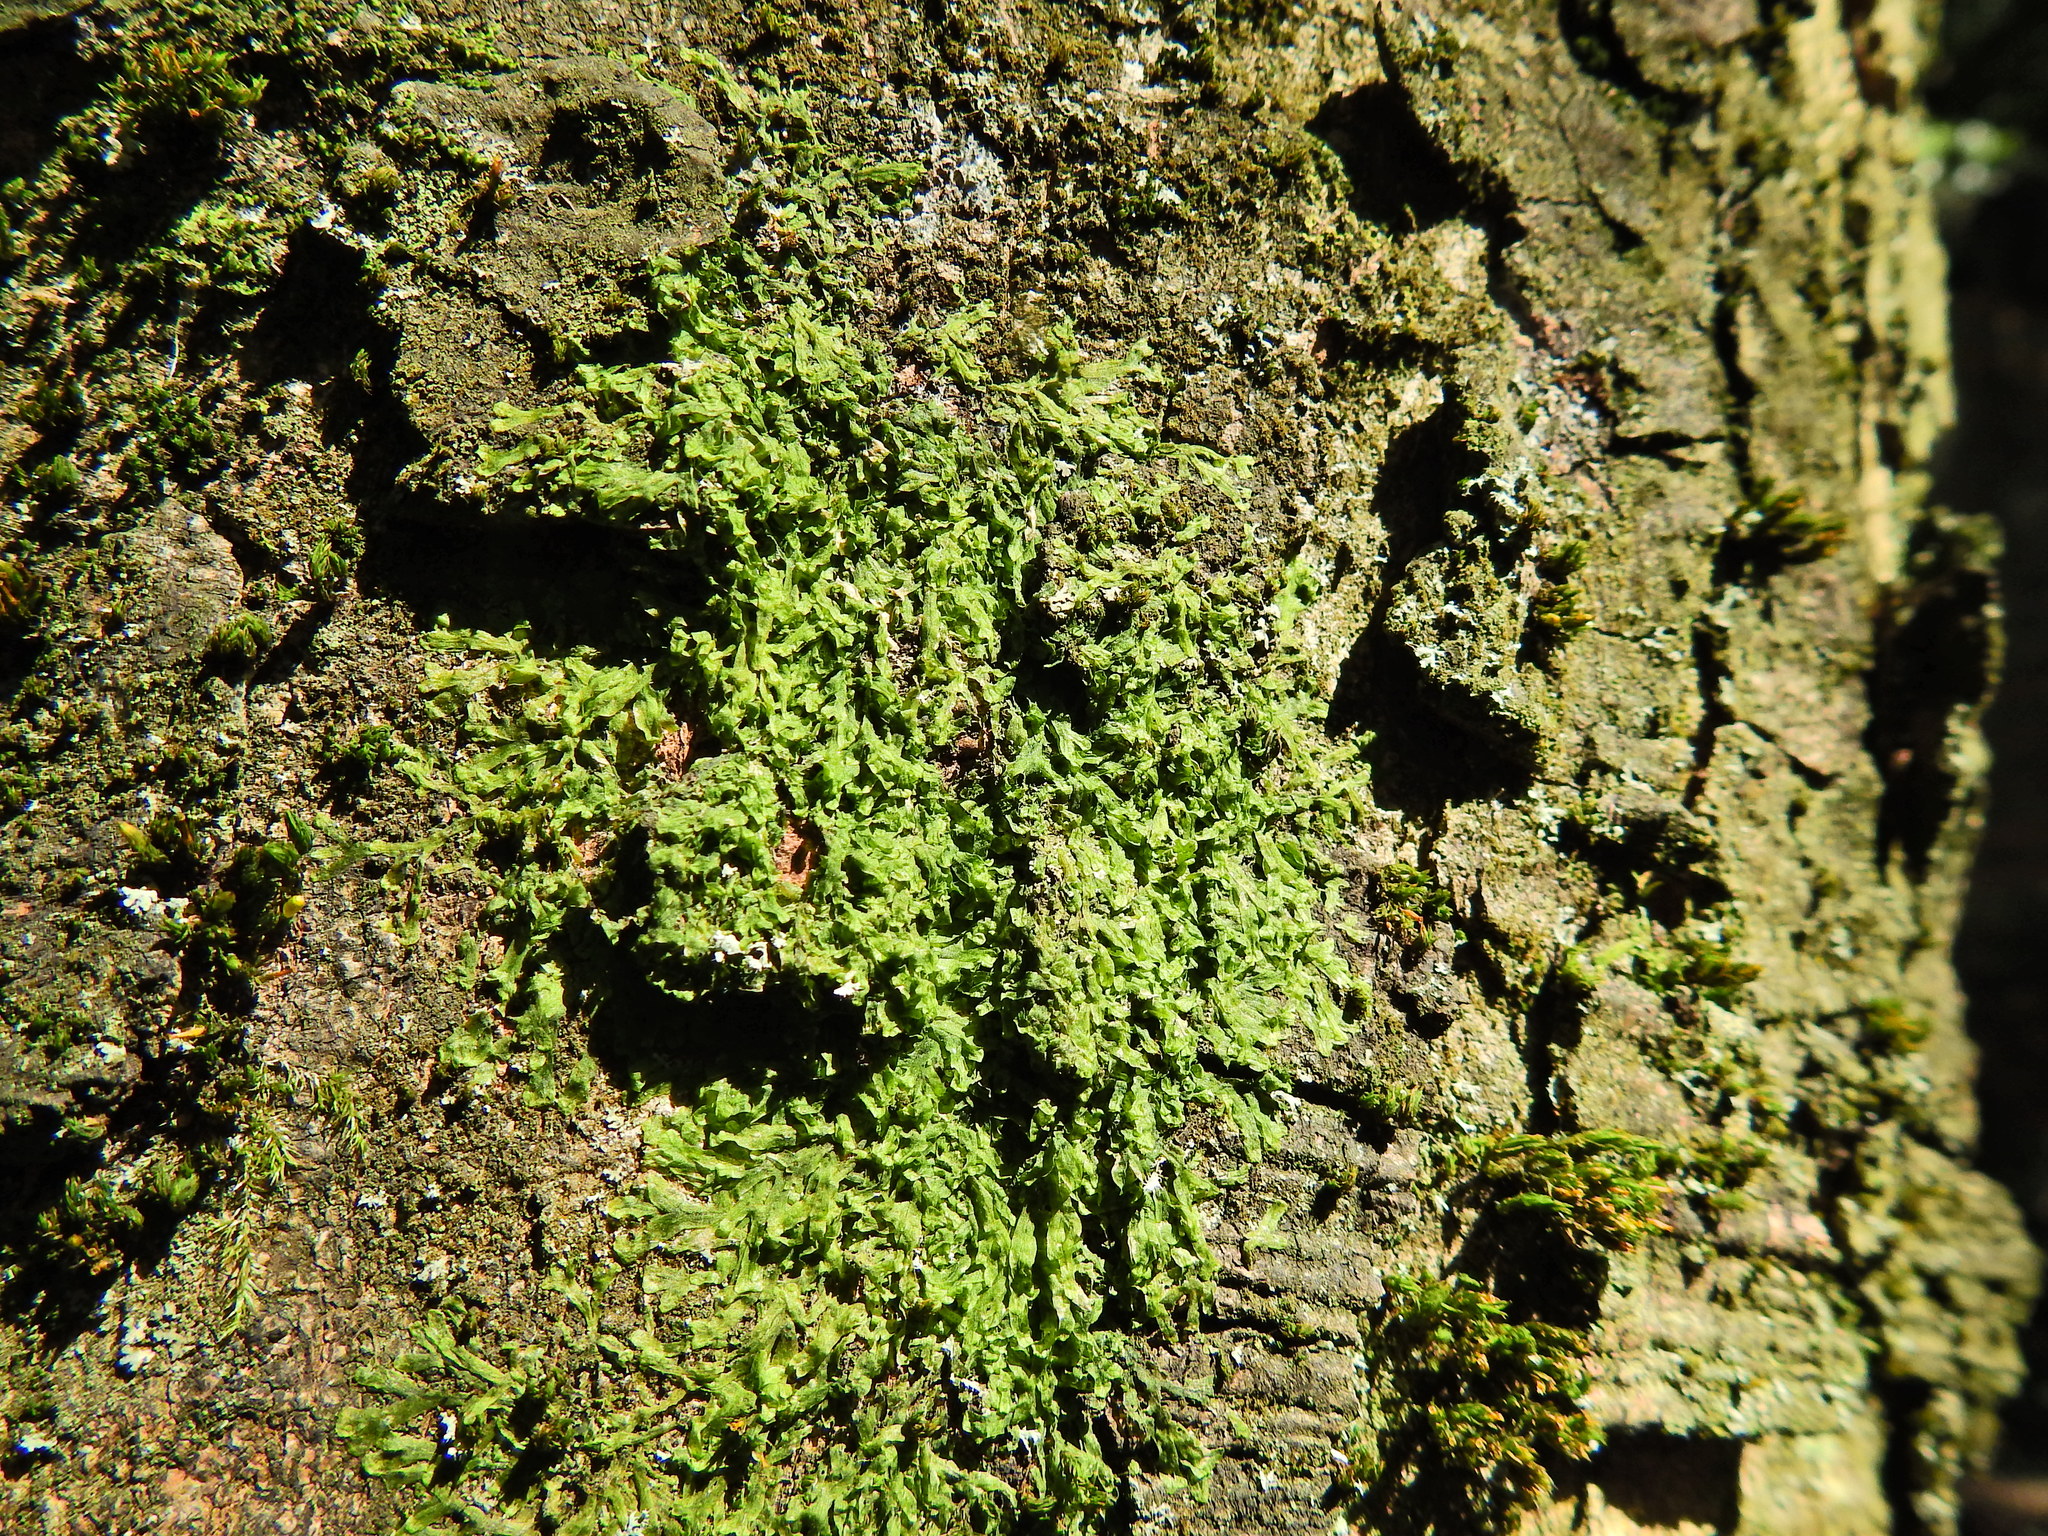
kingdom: Plantae
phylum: Marchantiophyta
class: Jungermanniopsida
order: Metzgeriales
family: Metzgeriaceae
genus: Metzgeria
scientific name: Metzgeria furcata
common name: Forked veilwort
